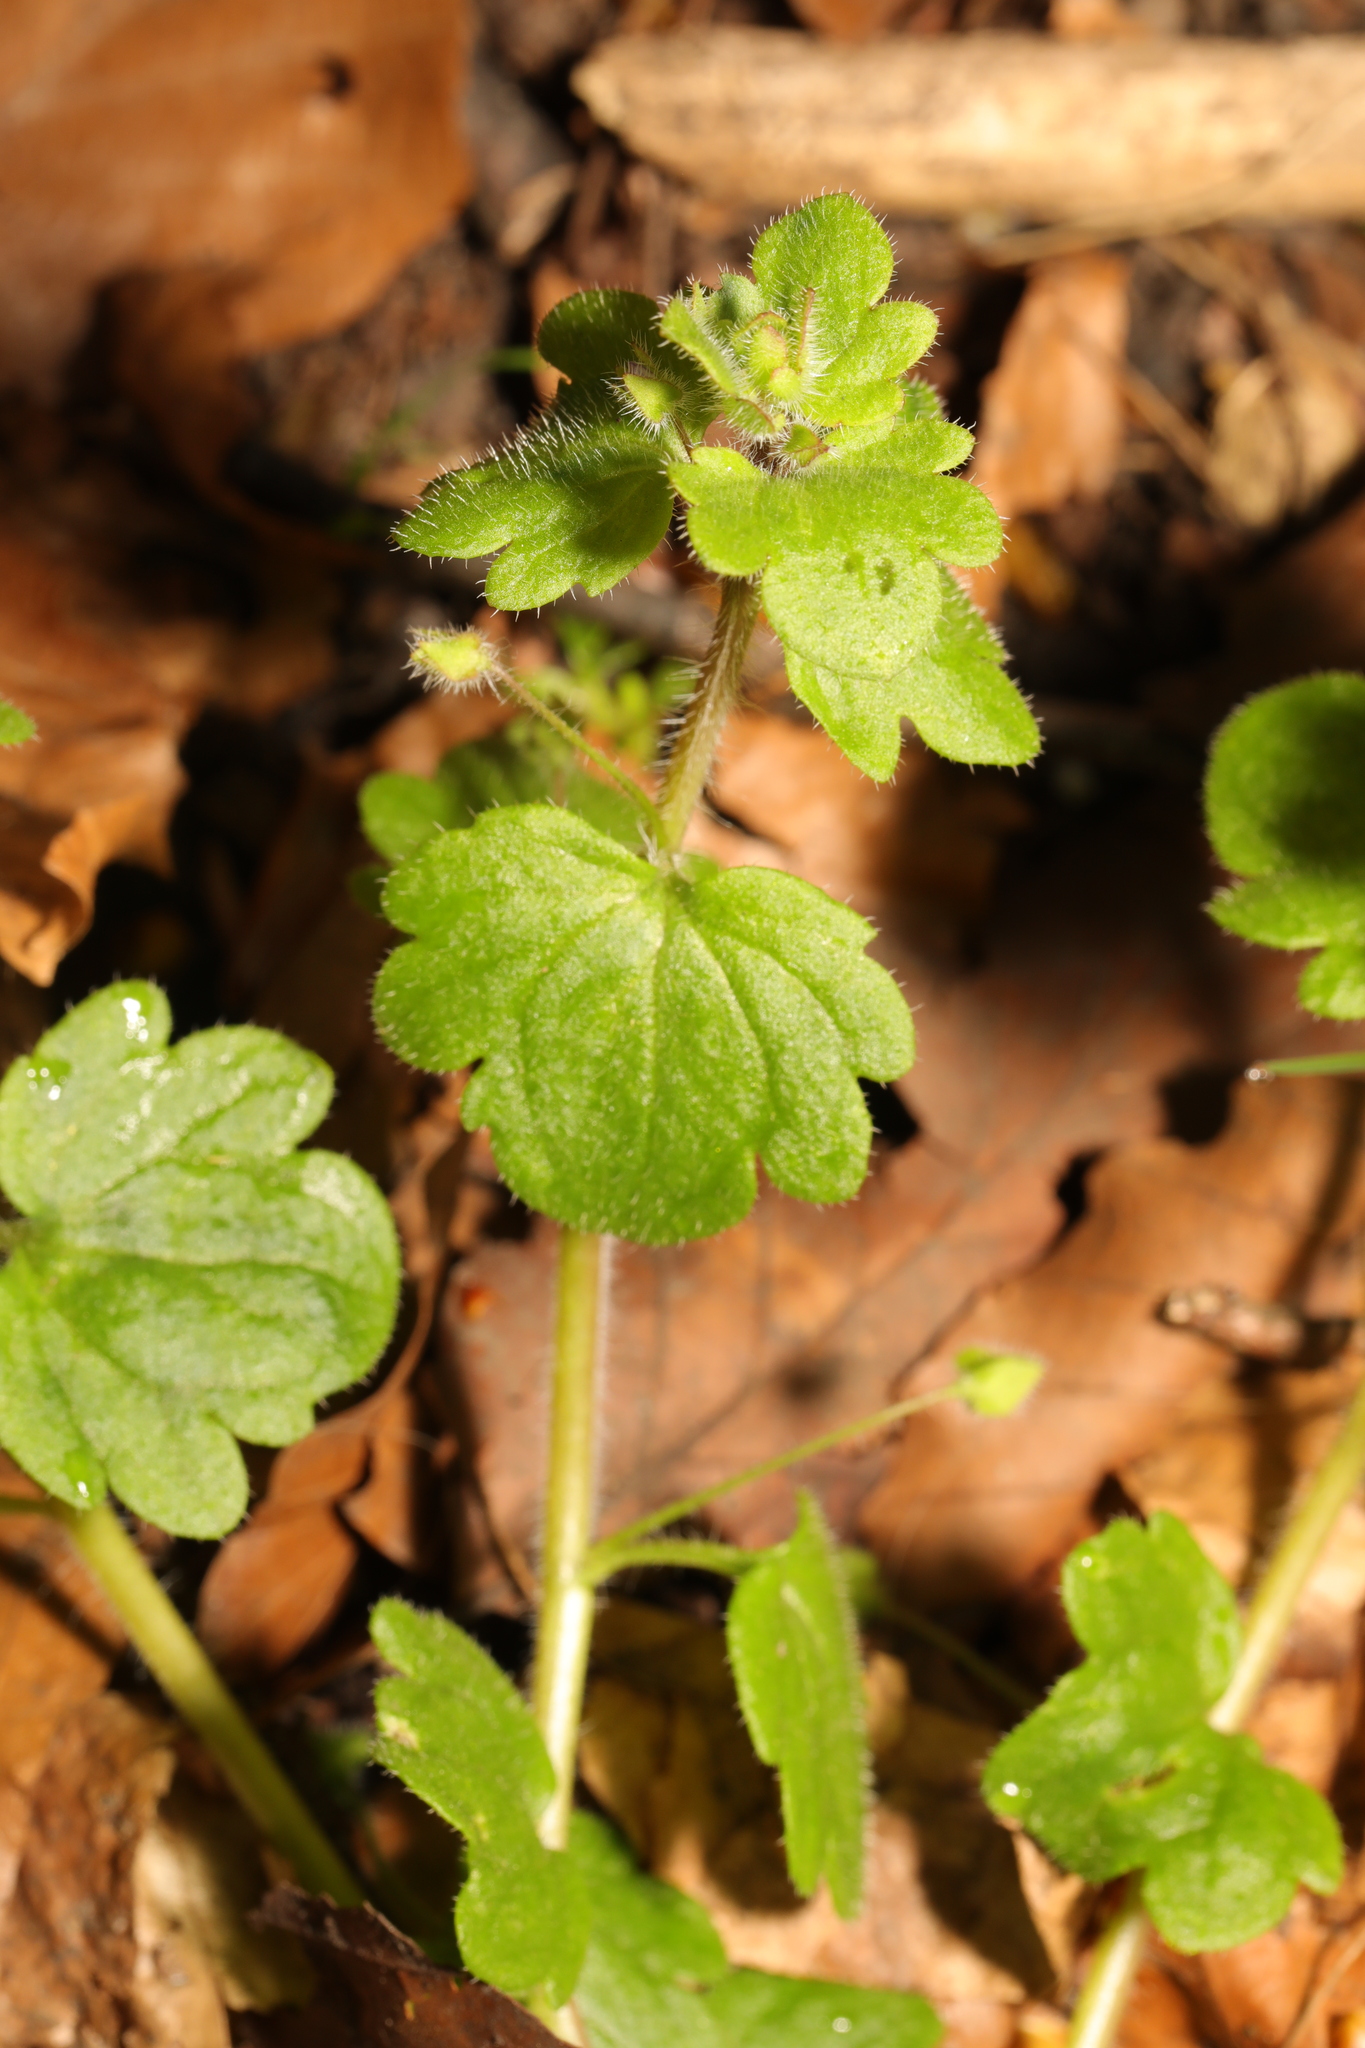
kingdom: Plantae
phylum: Tracheophyta
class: Magnoliopsida
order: Lamiales
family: Plantaginaceae
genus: Veronica
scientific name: Veronica sublobata
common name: False ivy-leaved speedwell
